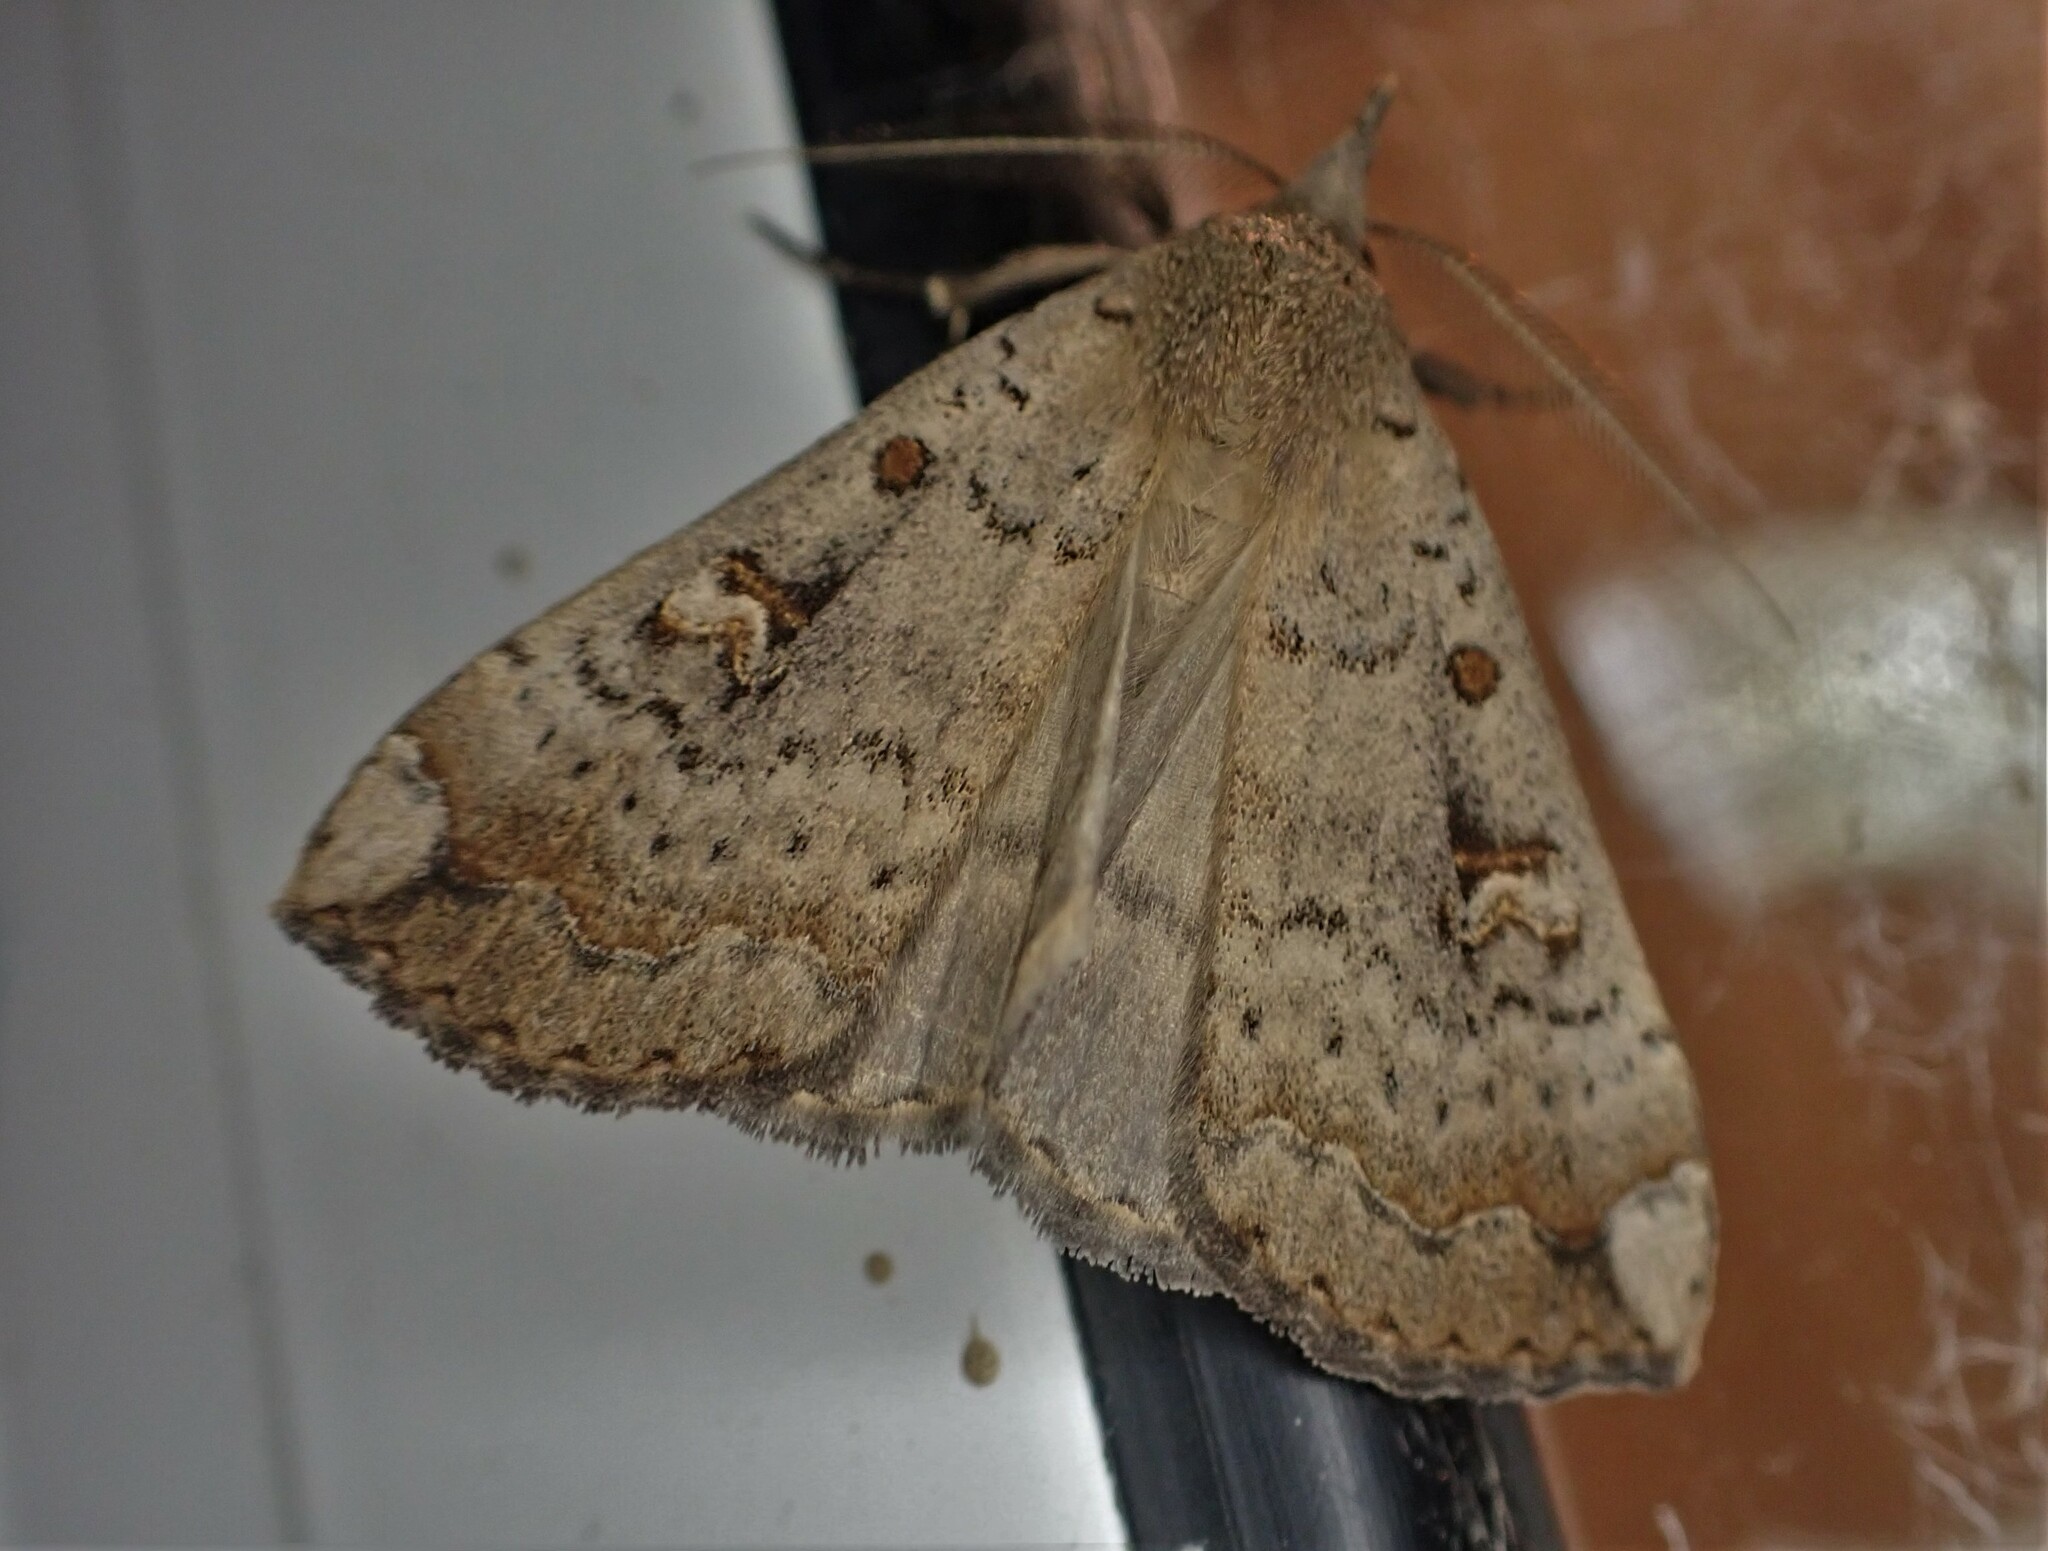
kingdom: Animalia
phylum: Arthropoda
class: Insecta
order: Lepidoptera
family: Erebidae
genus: Rhapsa
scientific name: Rhapsa scotosialis
